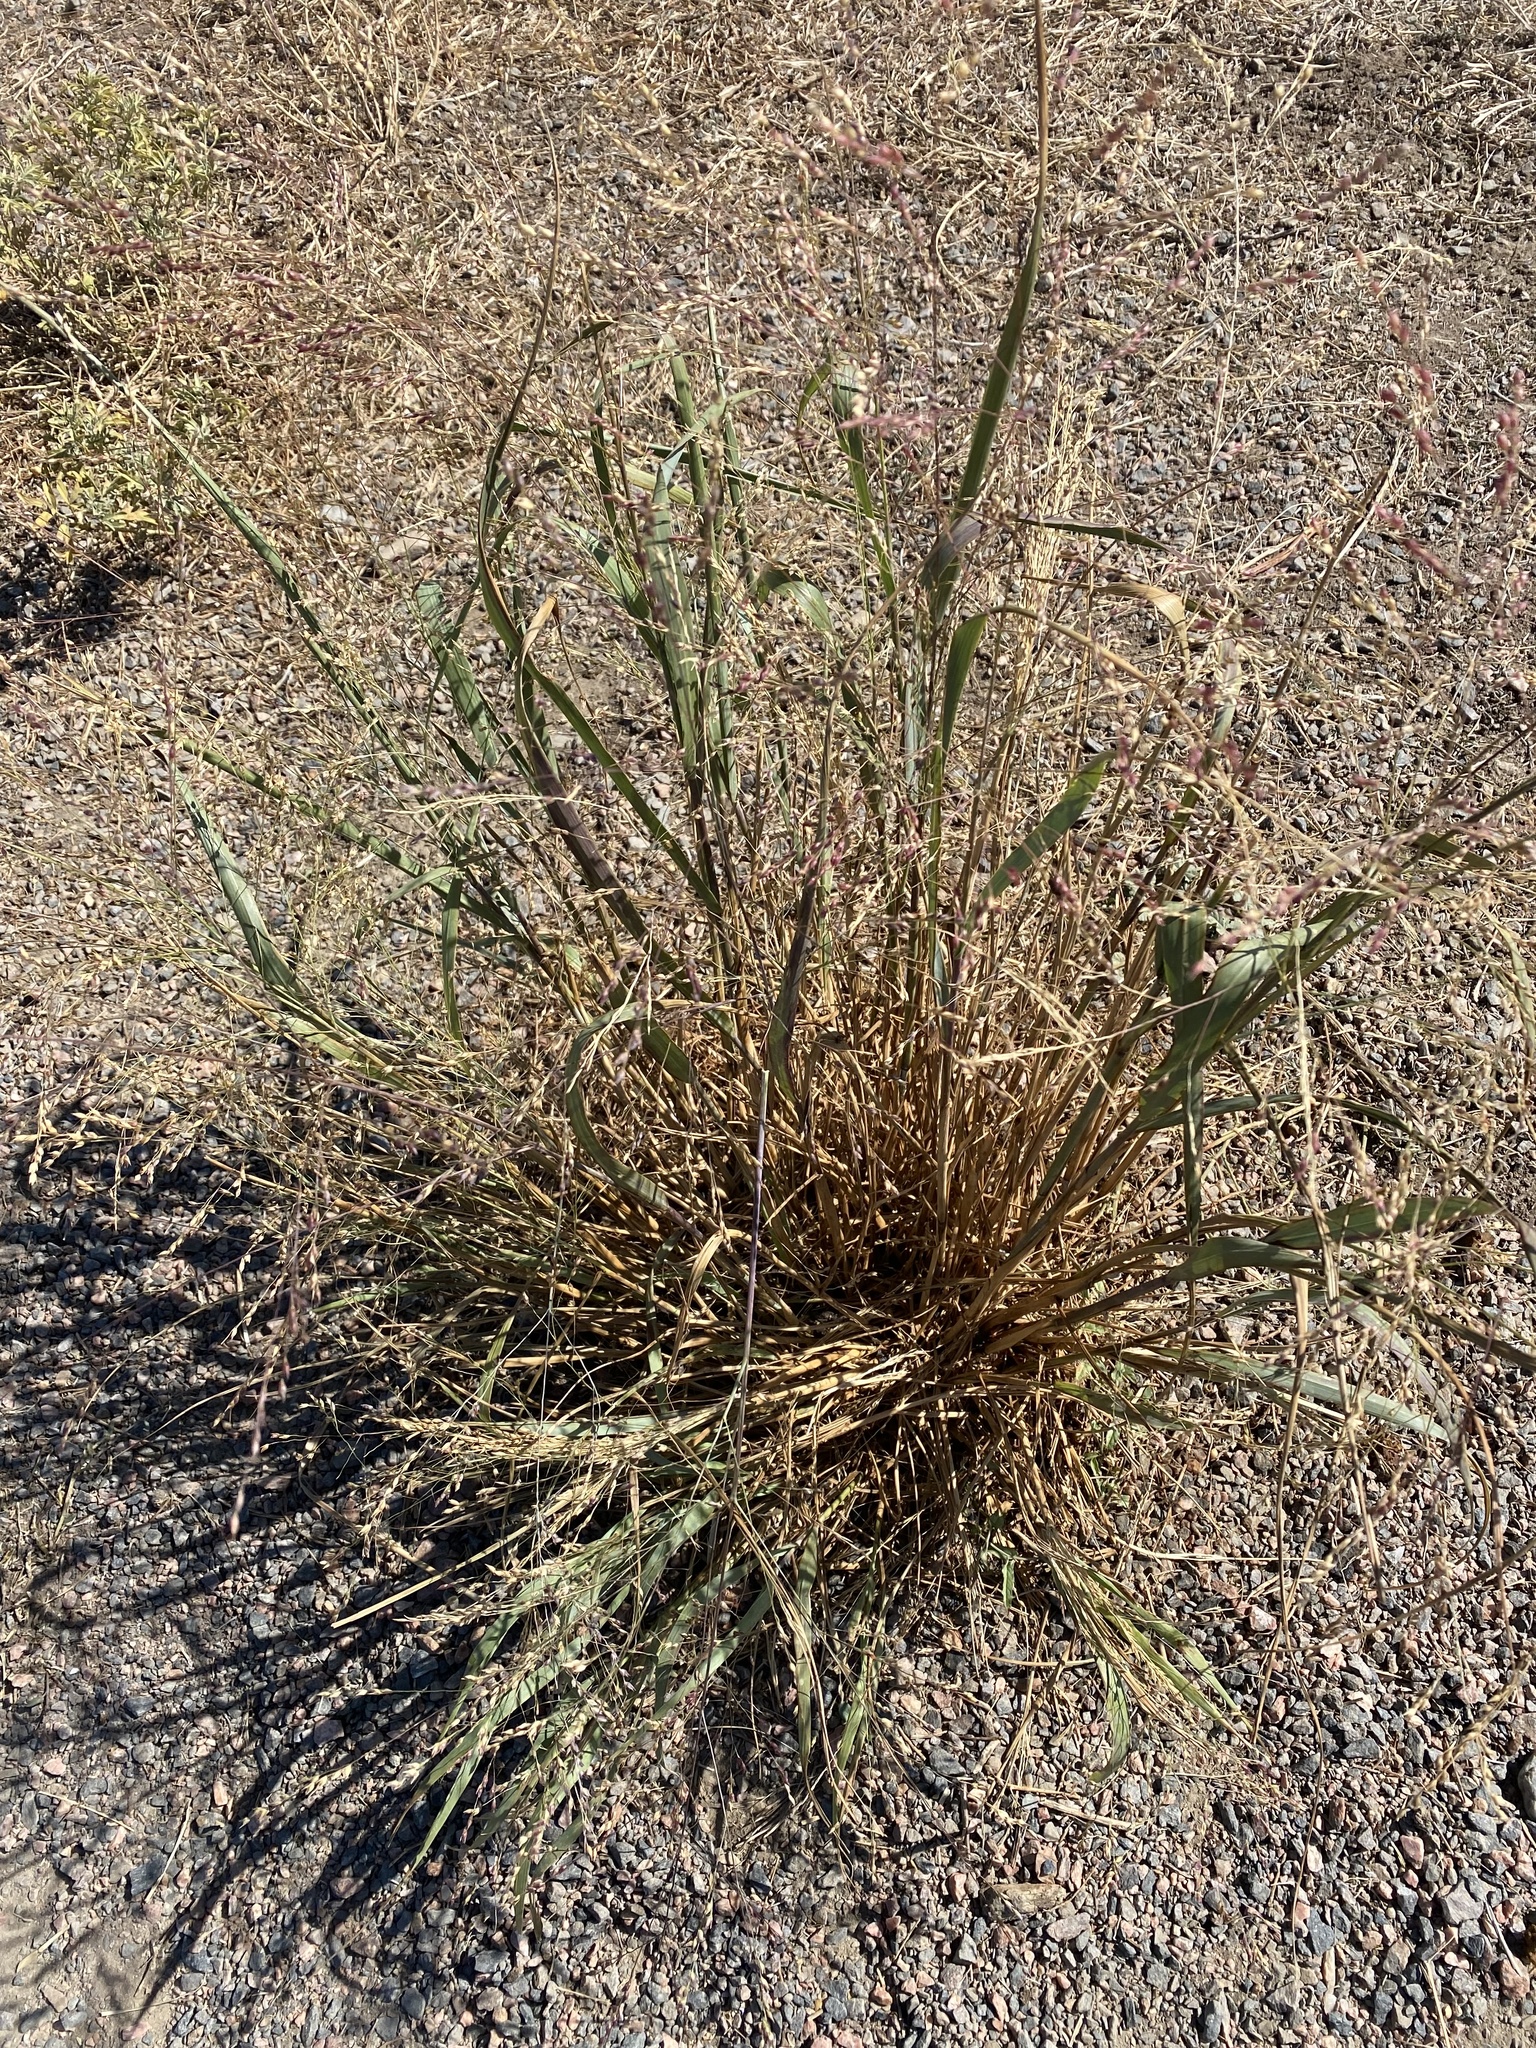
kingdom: Plantae
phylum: Tracheophyta
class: Liliopsida
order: Poales
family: Poaceae
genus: Panicum
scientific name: Panicum virgatum
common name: Switchgrass
